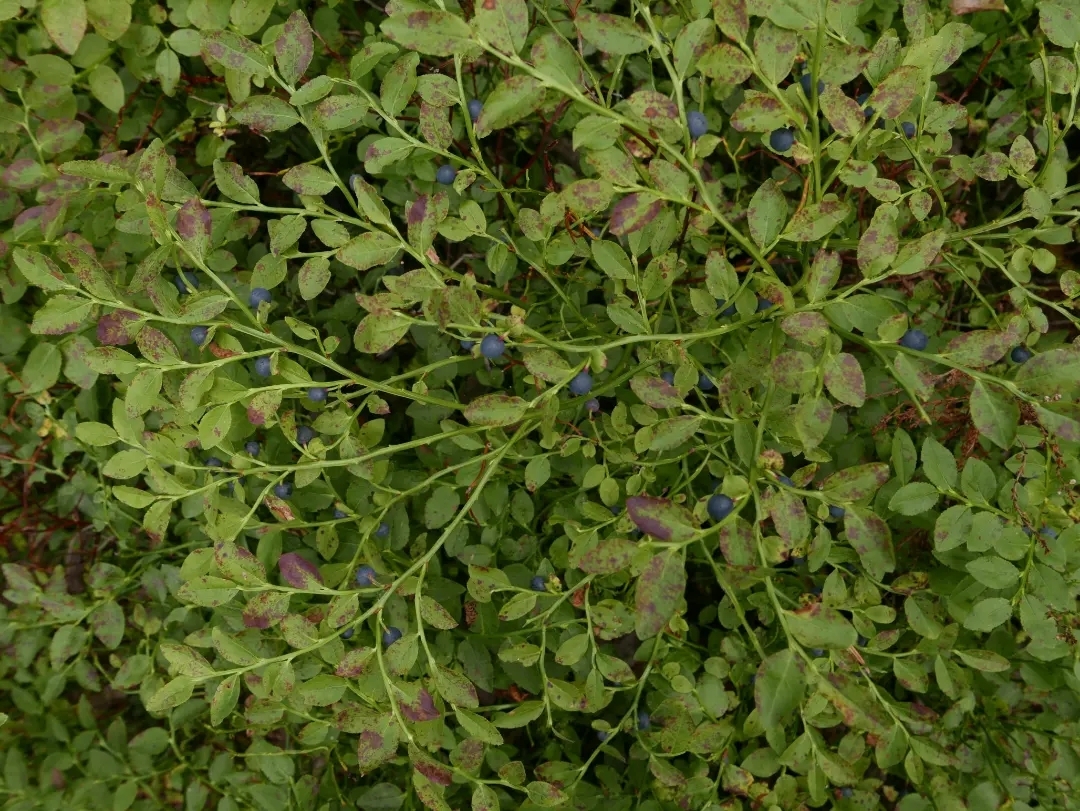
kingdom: Plantae
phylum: Tracheophyta
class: Magnoliopsida
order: Ericales
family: Ericaceae
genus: Vaccinium
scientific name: Vaccinium myrtillus
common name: Bilberry
